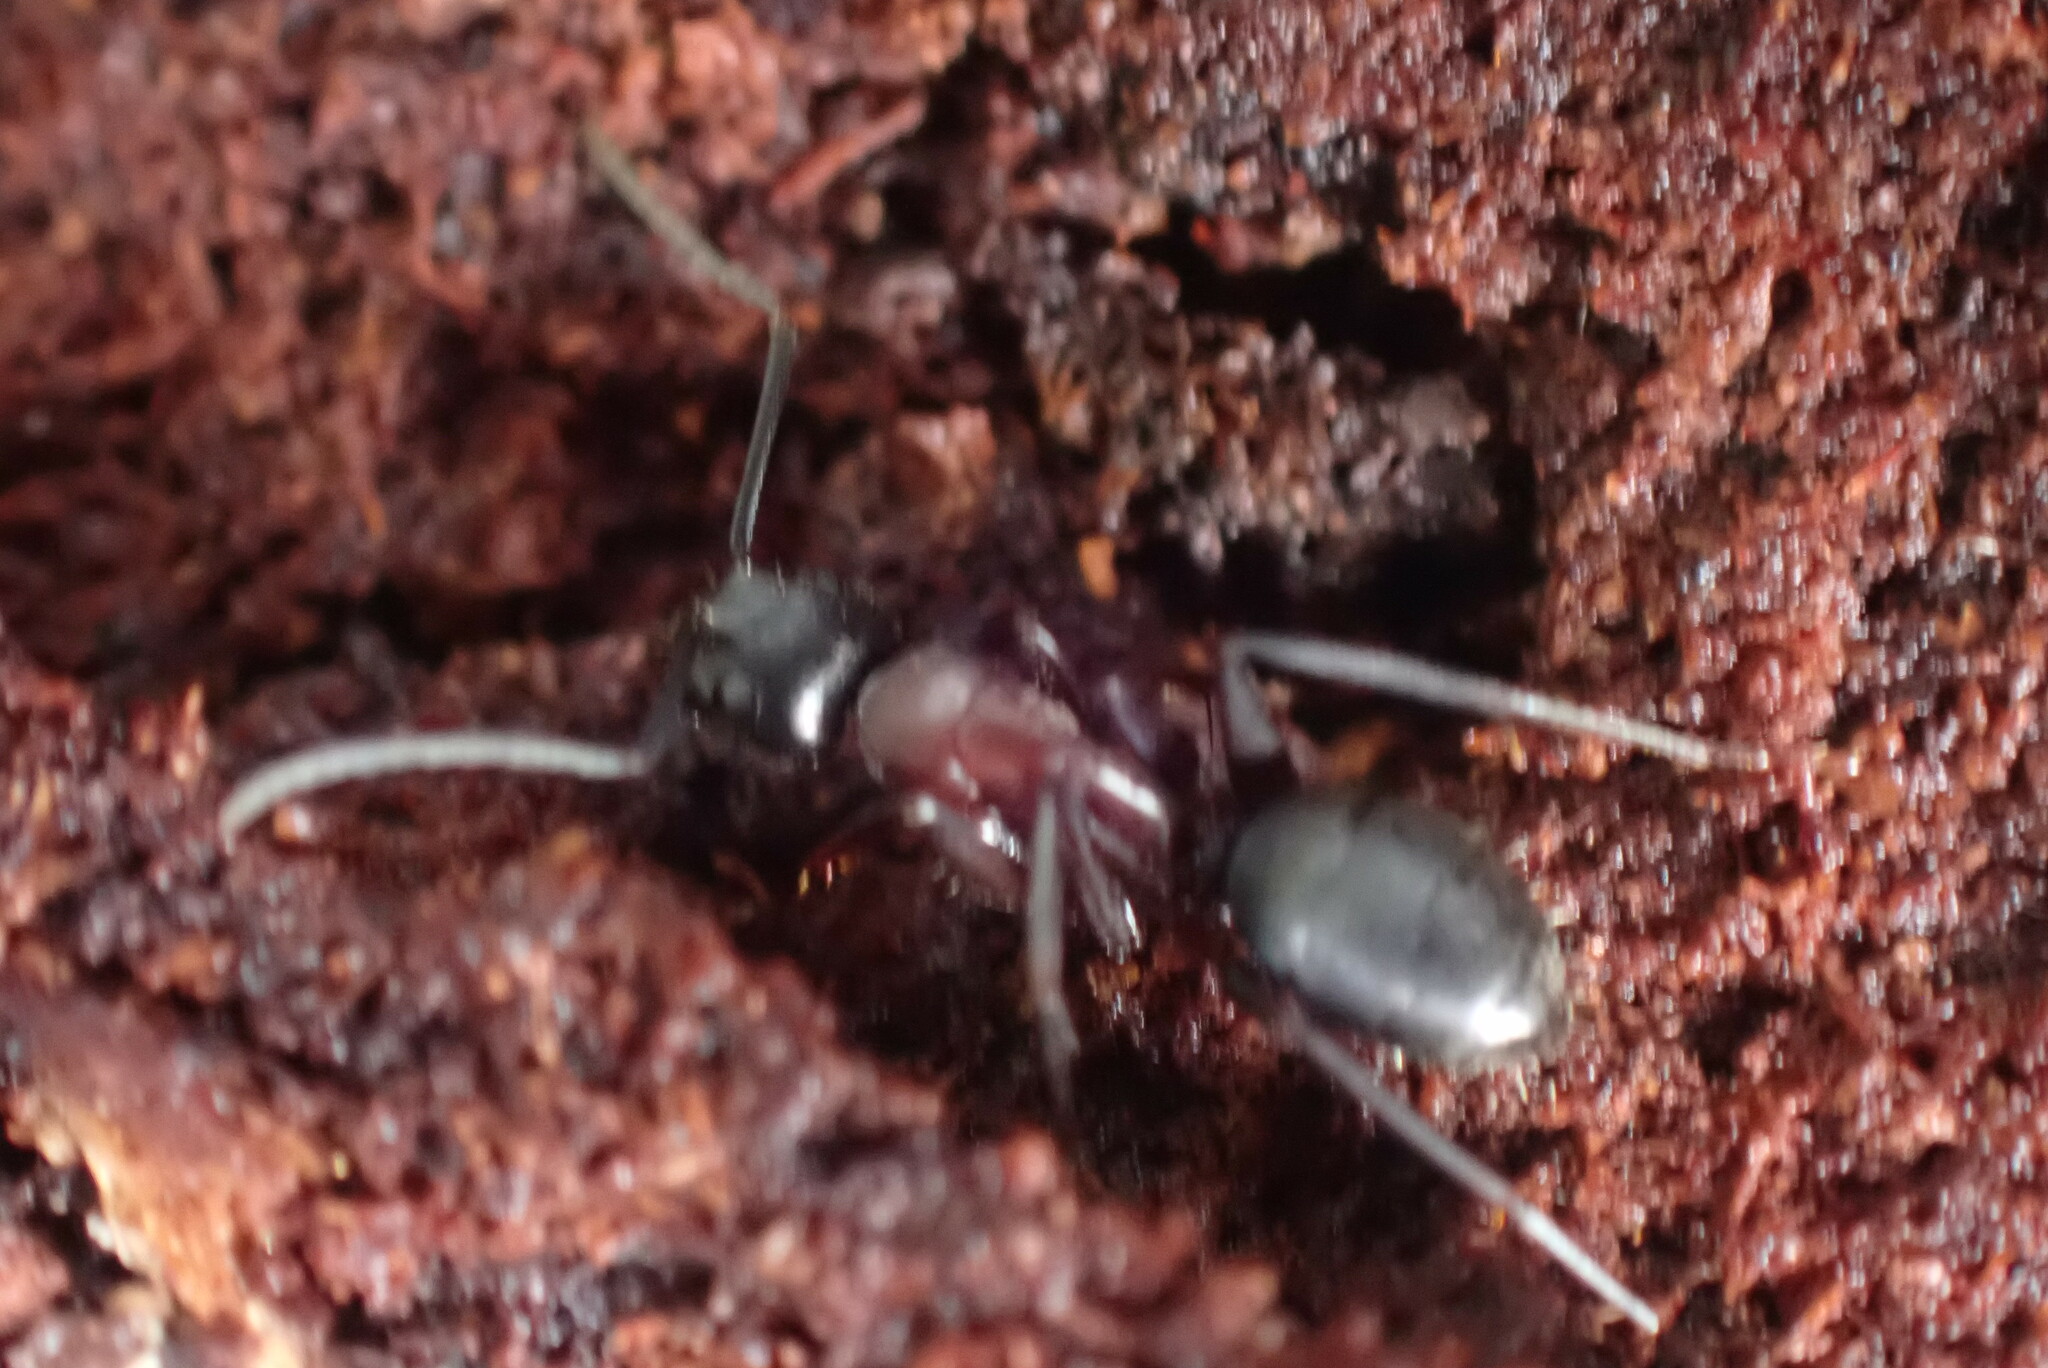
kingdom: Animalia
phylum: Arthropoda
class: Insecta
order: Hymenoptera
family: Formicidae
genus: Camponotus
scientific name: Camponotus vicinus
